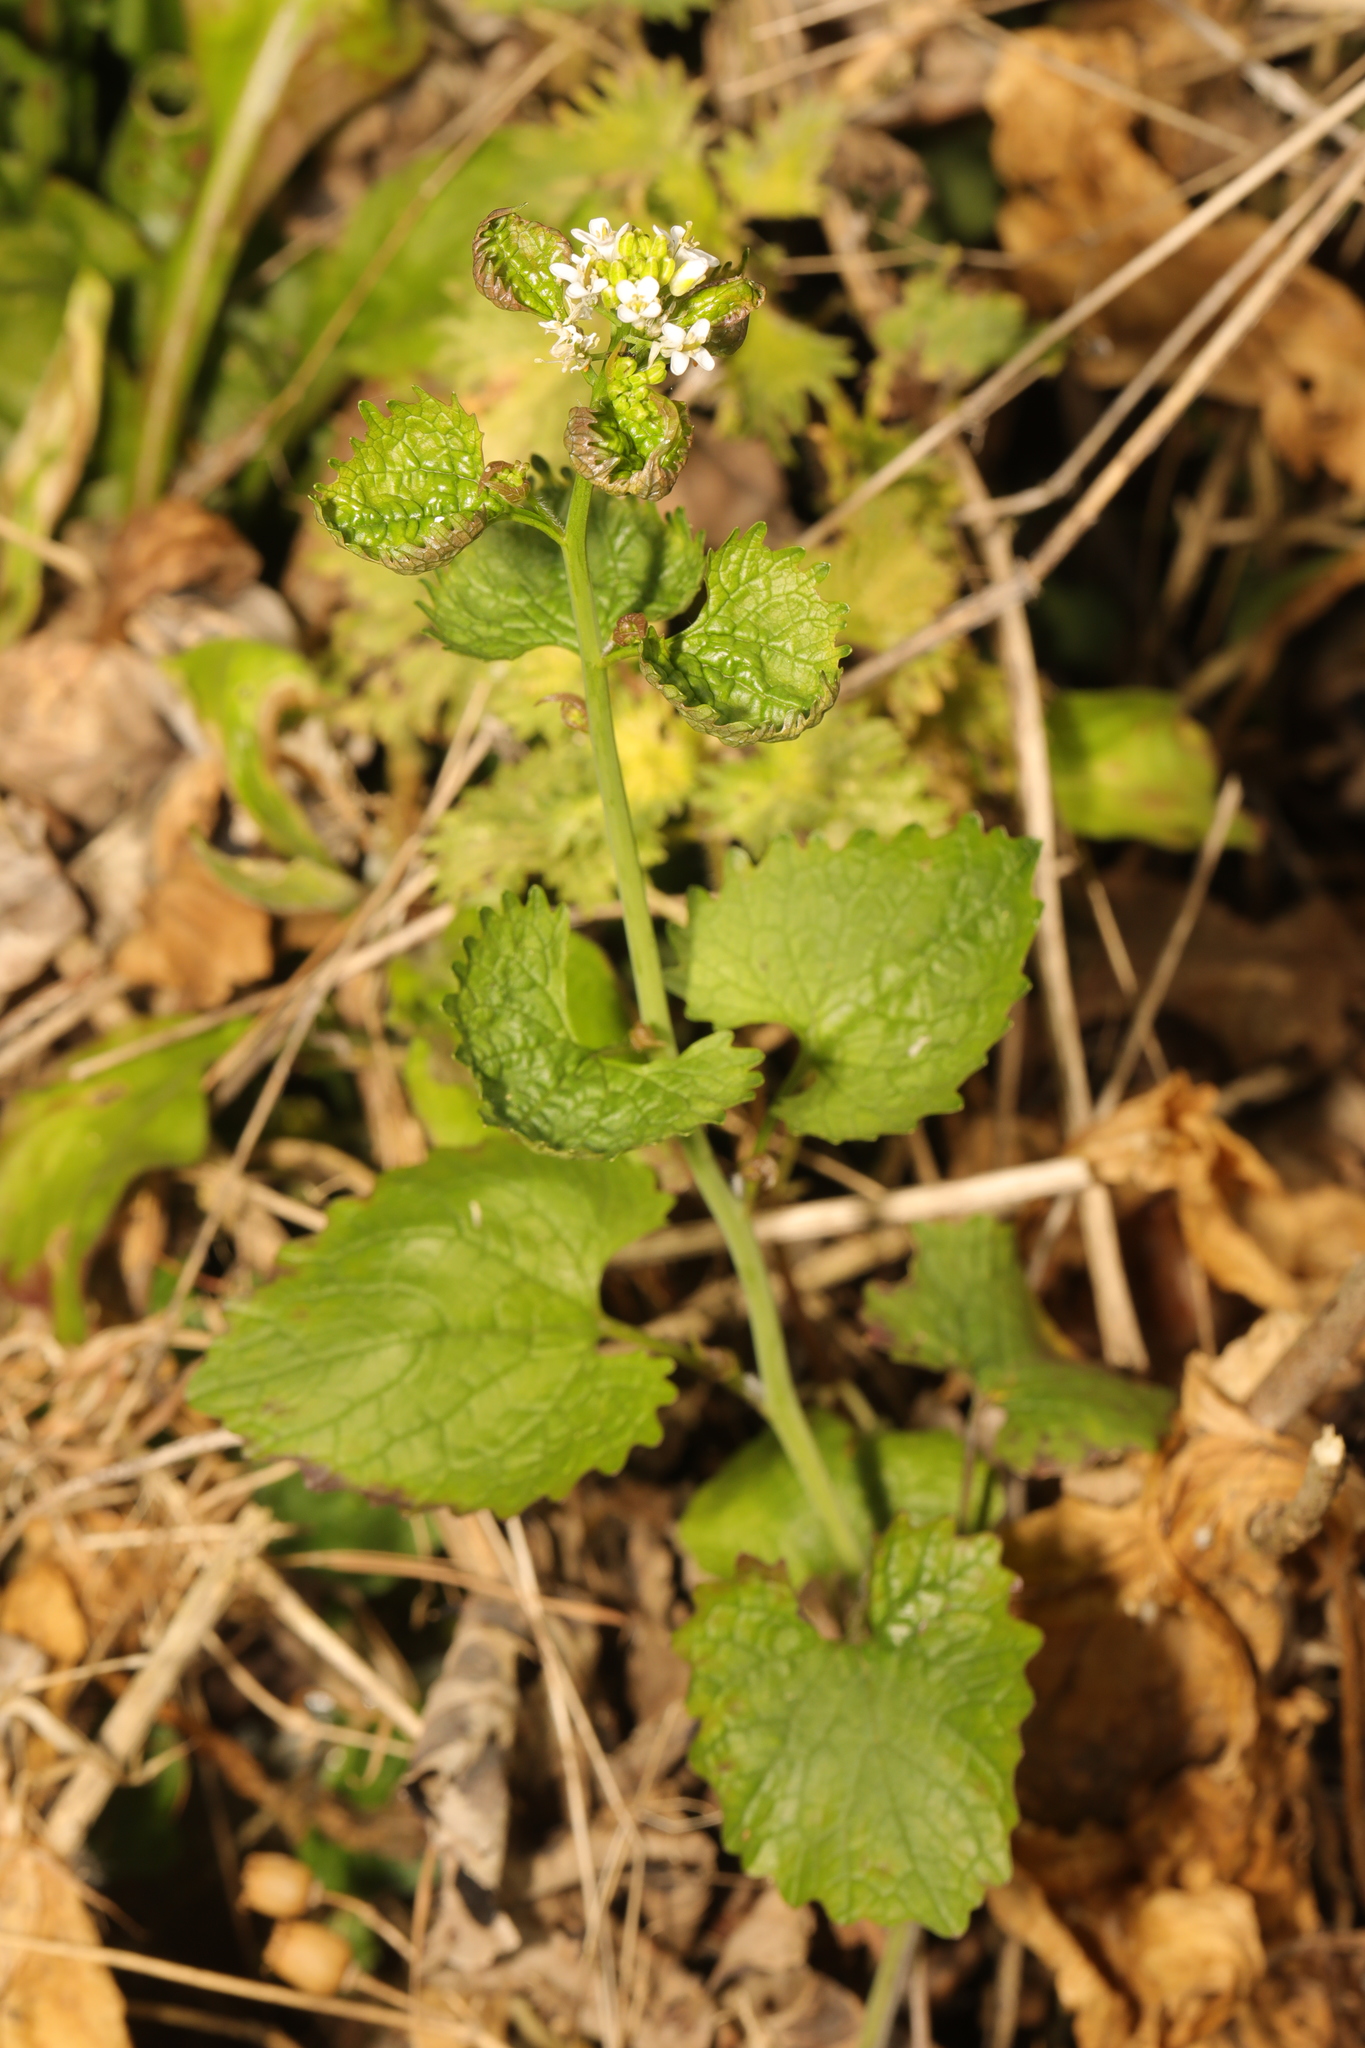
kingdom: Plantae
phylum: Tracheophyta
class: Magnoliopsida
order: Brassicales
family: Brassicaceae
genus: Alliaria
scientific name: Alliaria petiolata
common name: Garlic mustard
